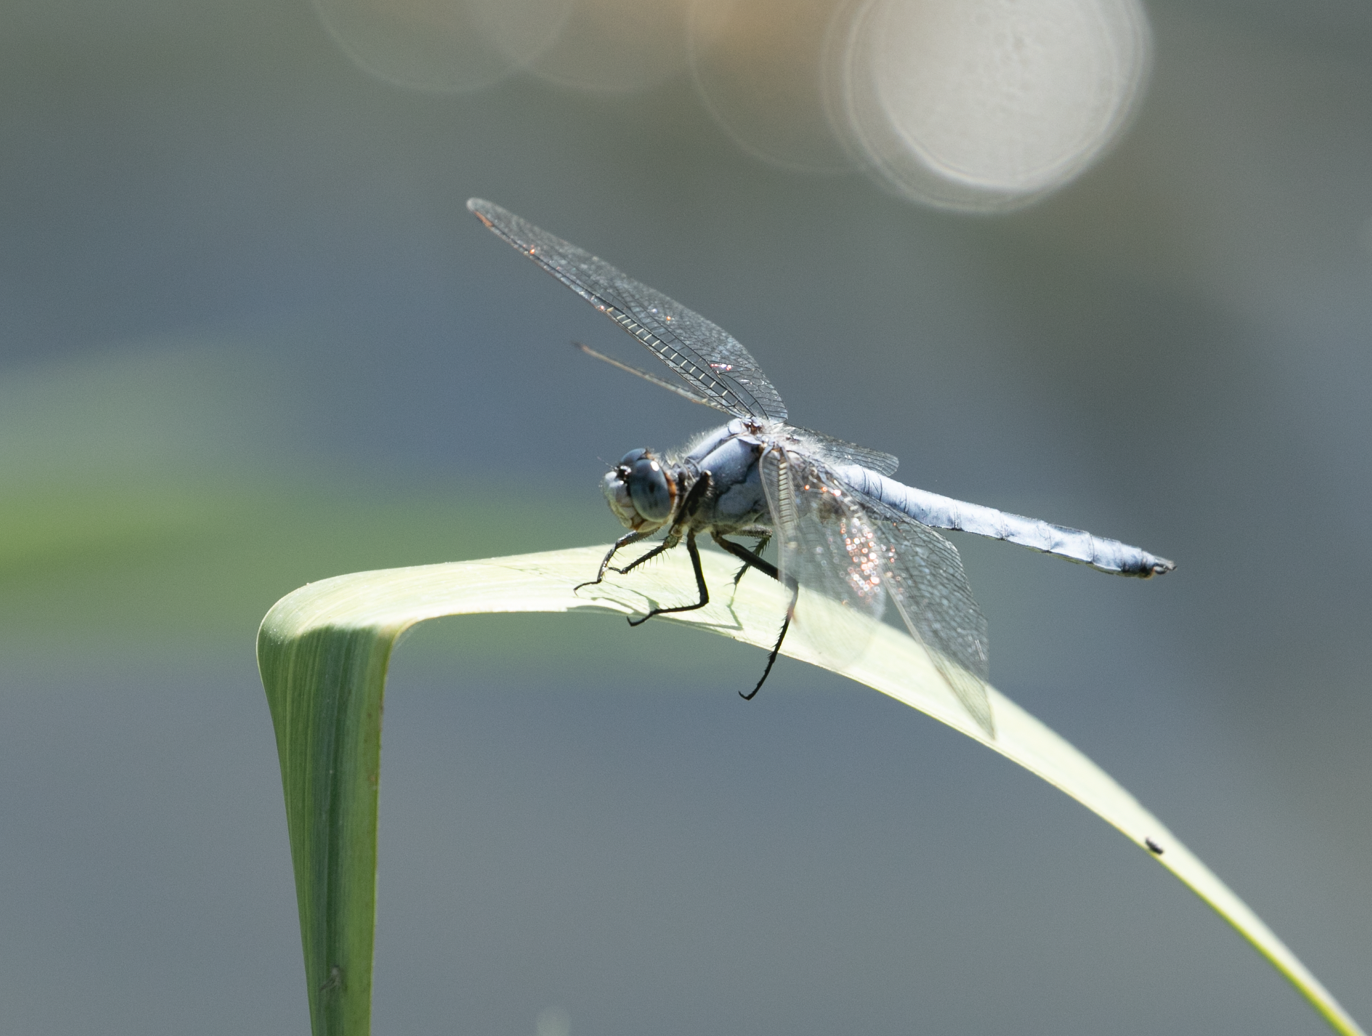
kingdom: Animalia
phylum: Arthropoda
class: Insecta
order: Odonata
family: Libellulidae
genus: Orthetrum
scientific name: Orthetrum brunneum
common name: Southern skimmer
